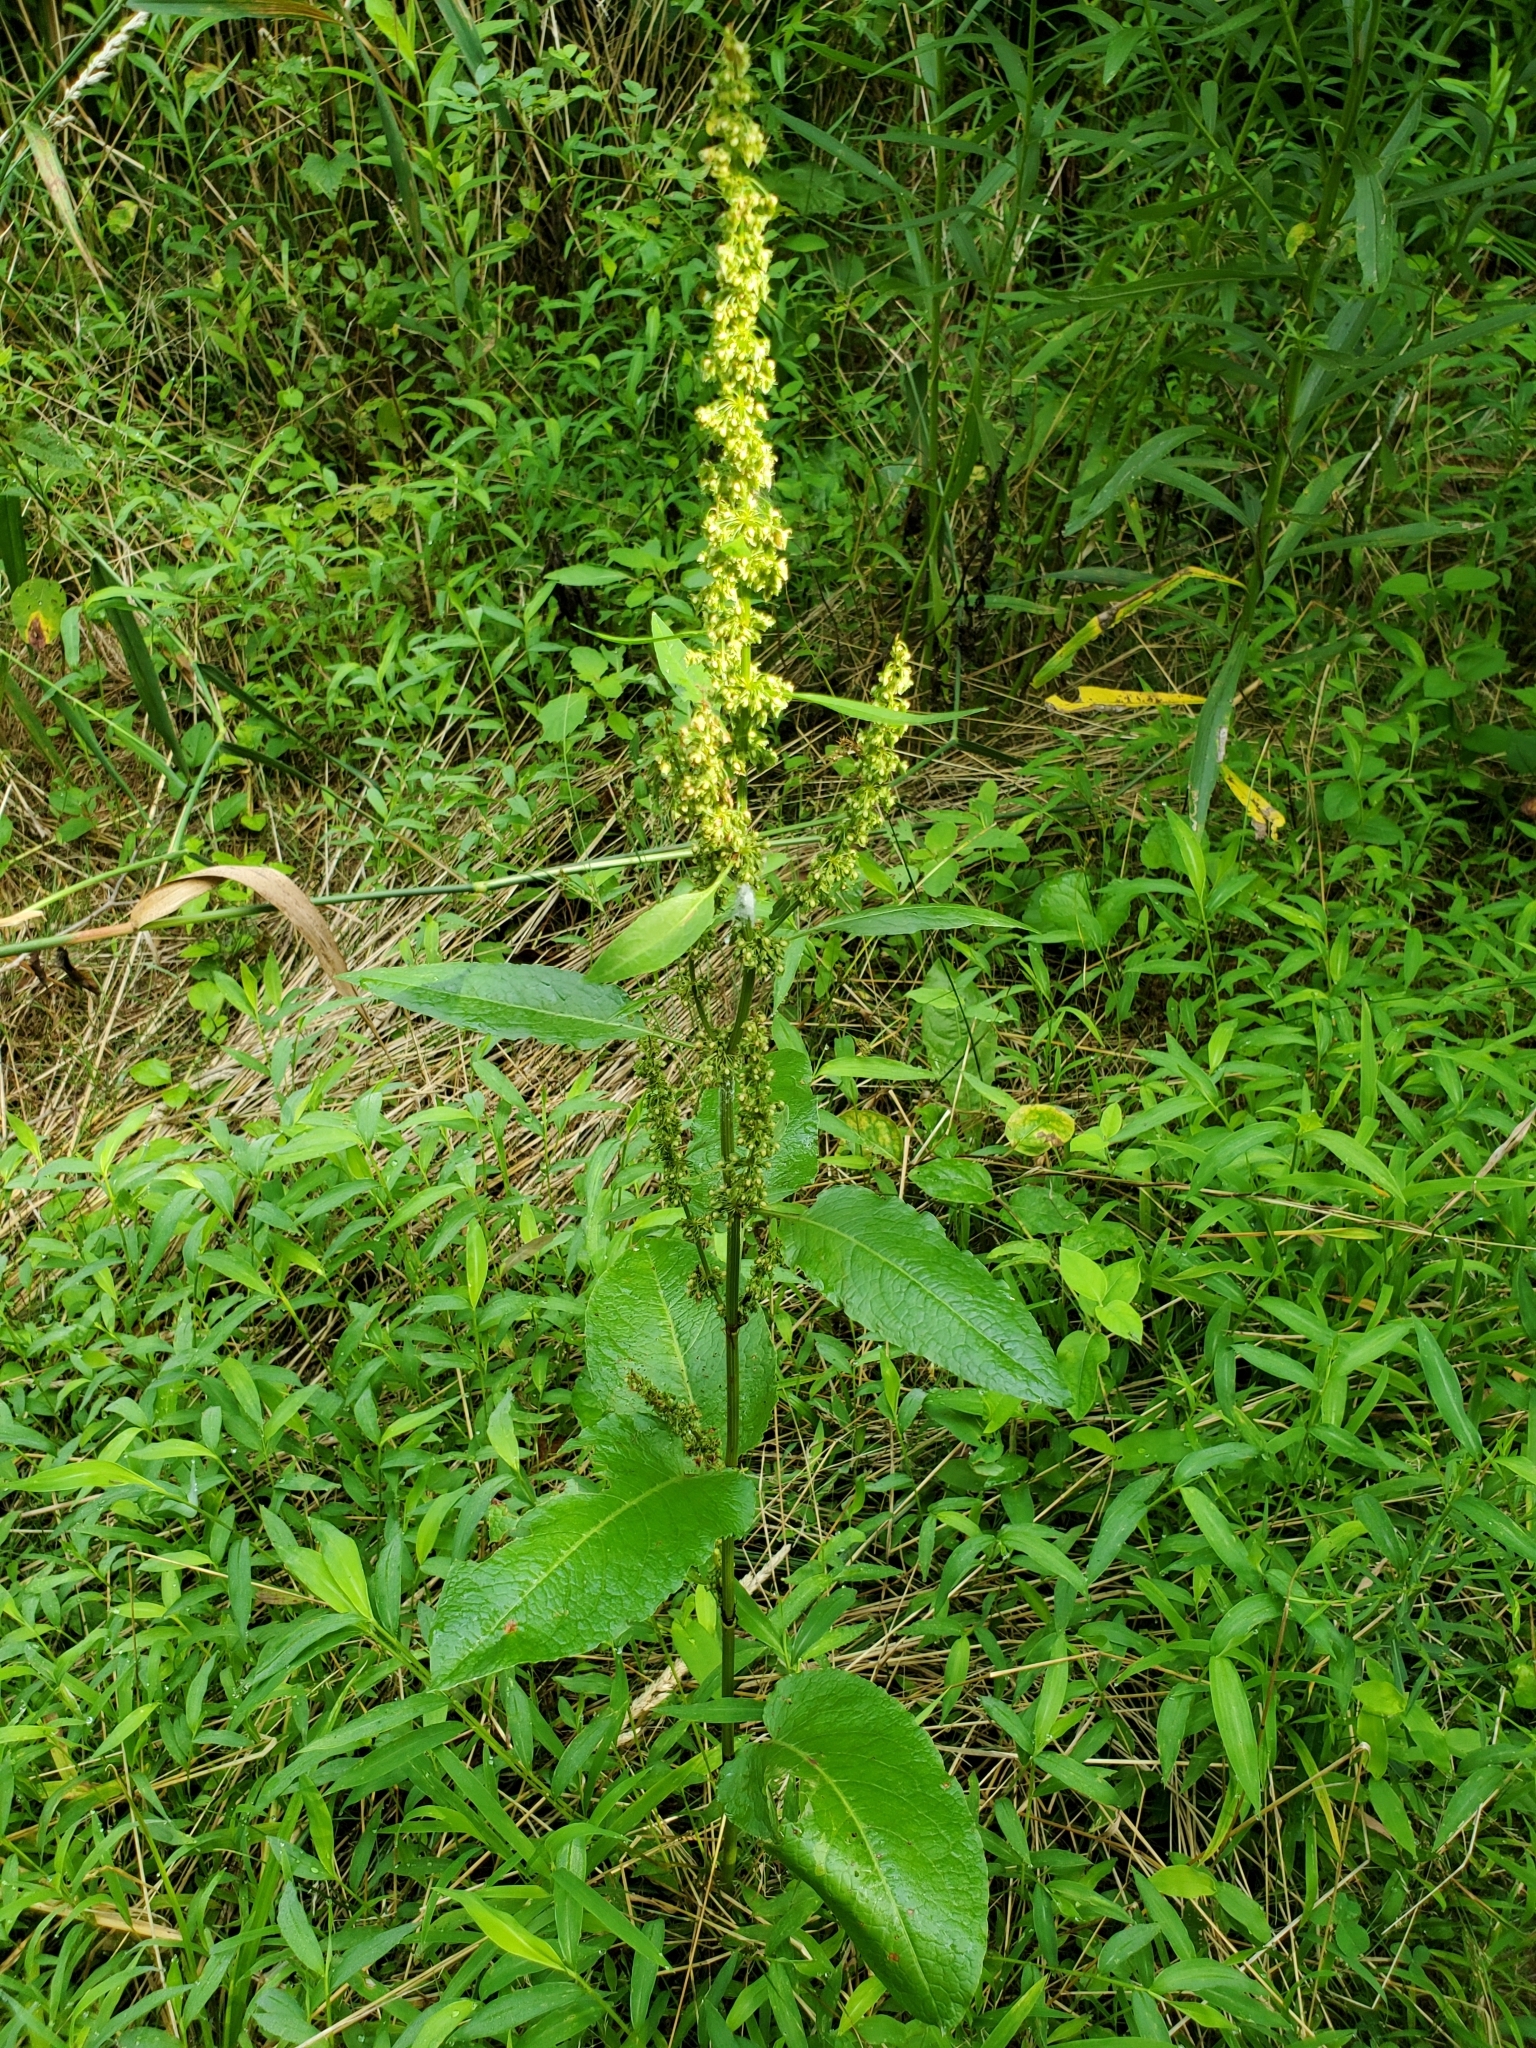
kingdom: Plantae
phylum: Tracheophyta
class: Magnoliopsida
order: Caryophyllales
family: Polygonaceae
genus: Rumex
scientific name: Rumex obtusifolius
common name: Bitter dock
